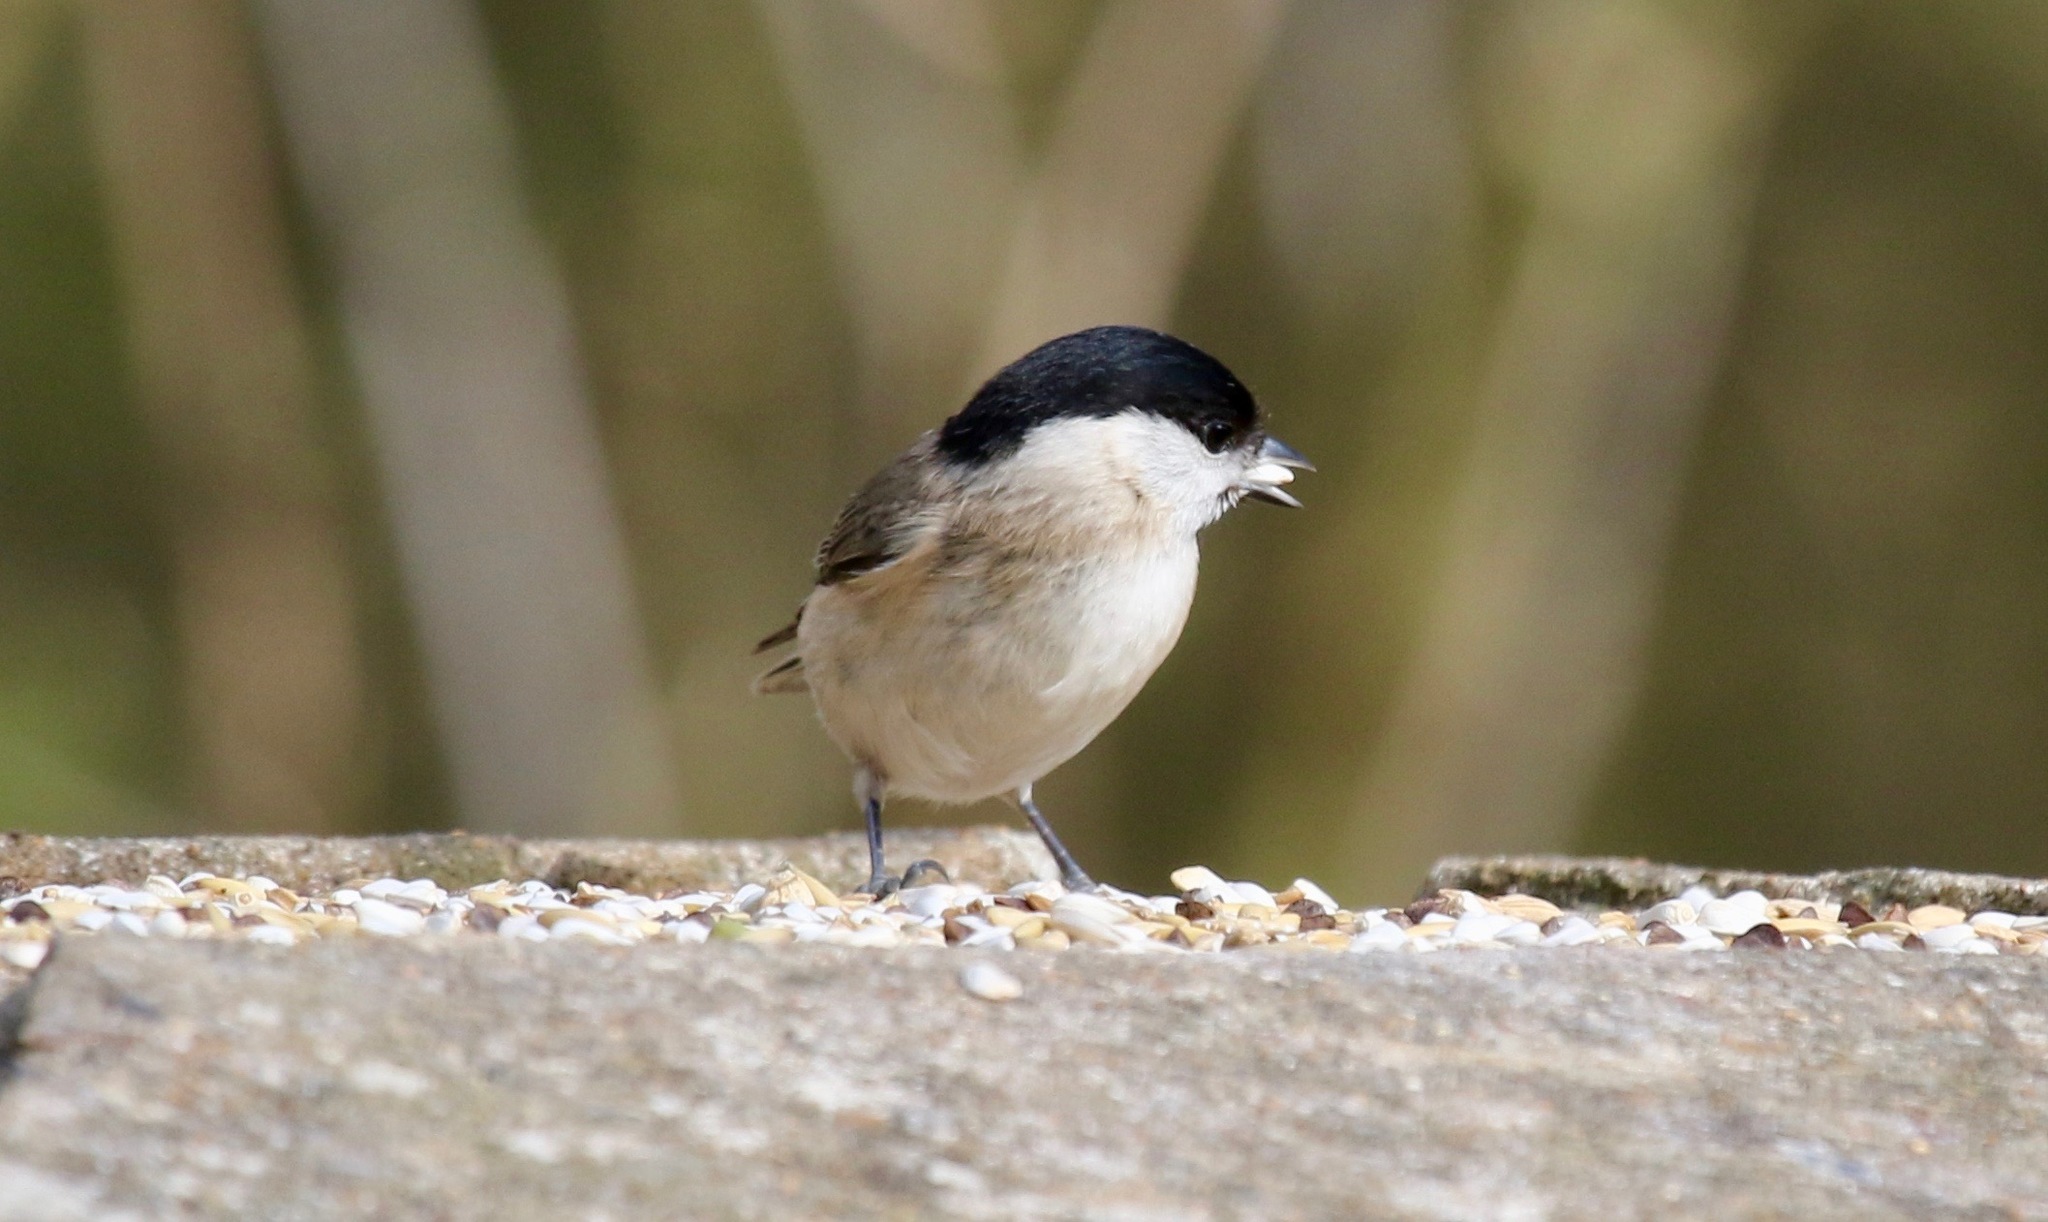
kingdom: Animalia
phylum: Chordata
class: Aves
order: Passeriformes
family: Paridae
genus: Poecile
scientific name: Poecile palustris
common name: Marsh tit
